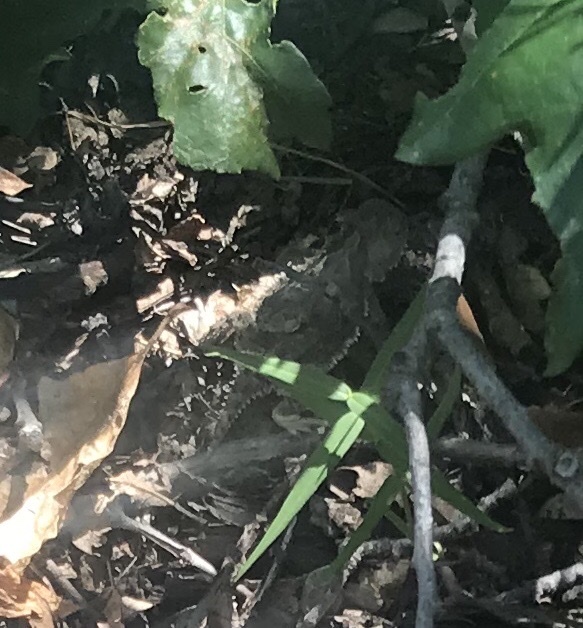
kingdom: Animalia
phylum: Chordata
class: Squamata
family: Phrynosomatidae
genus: Phrynosoma
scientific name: Phrynosoma hernandesi
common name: Greater short-horned lizard
